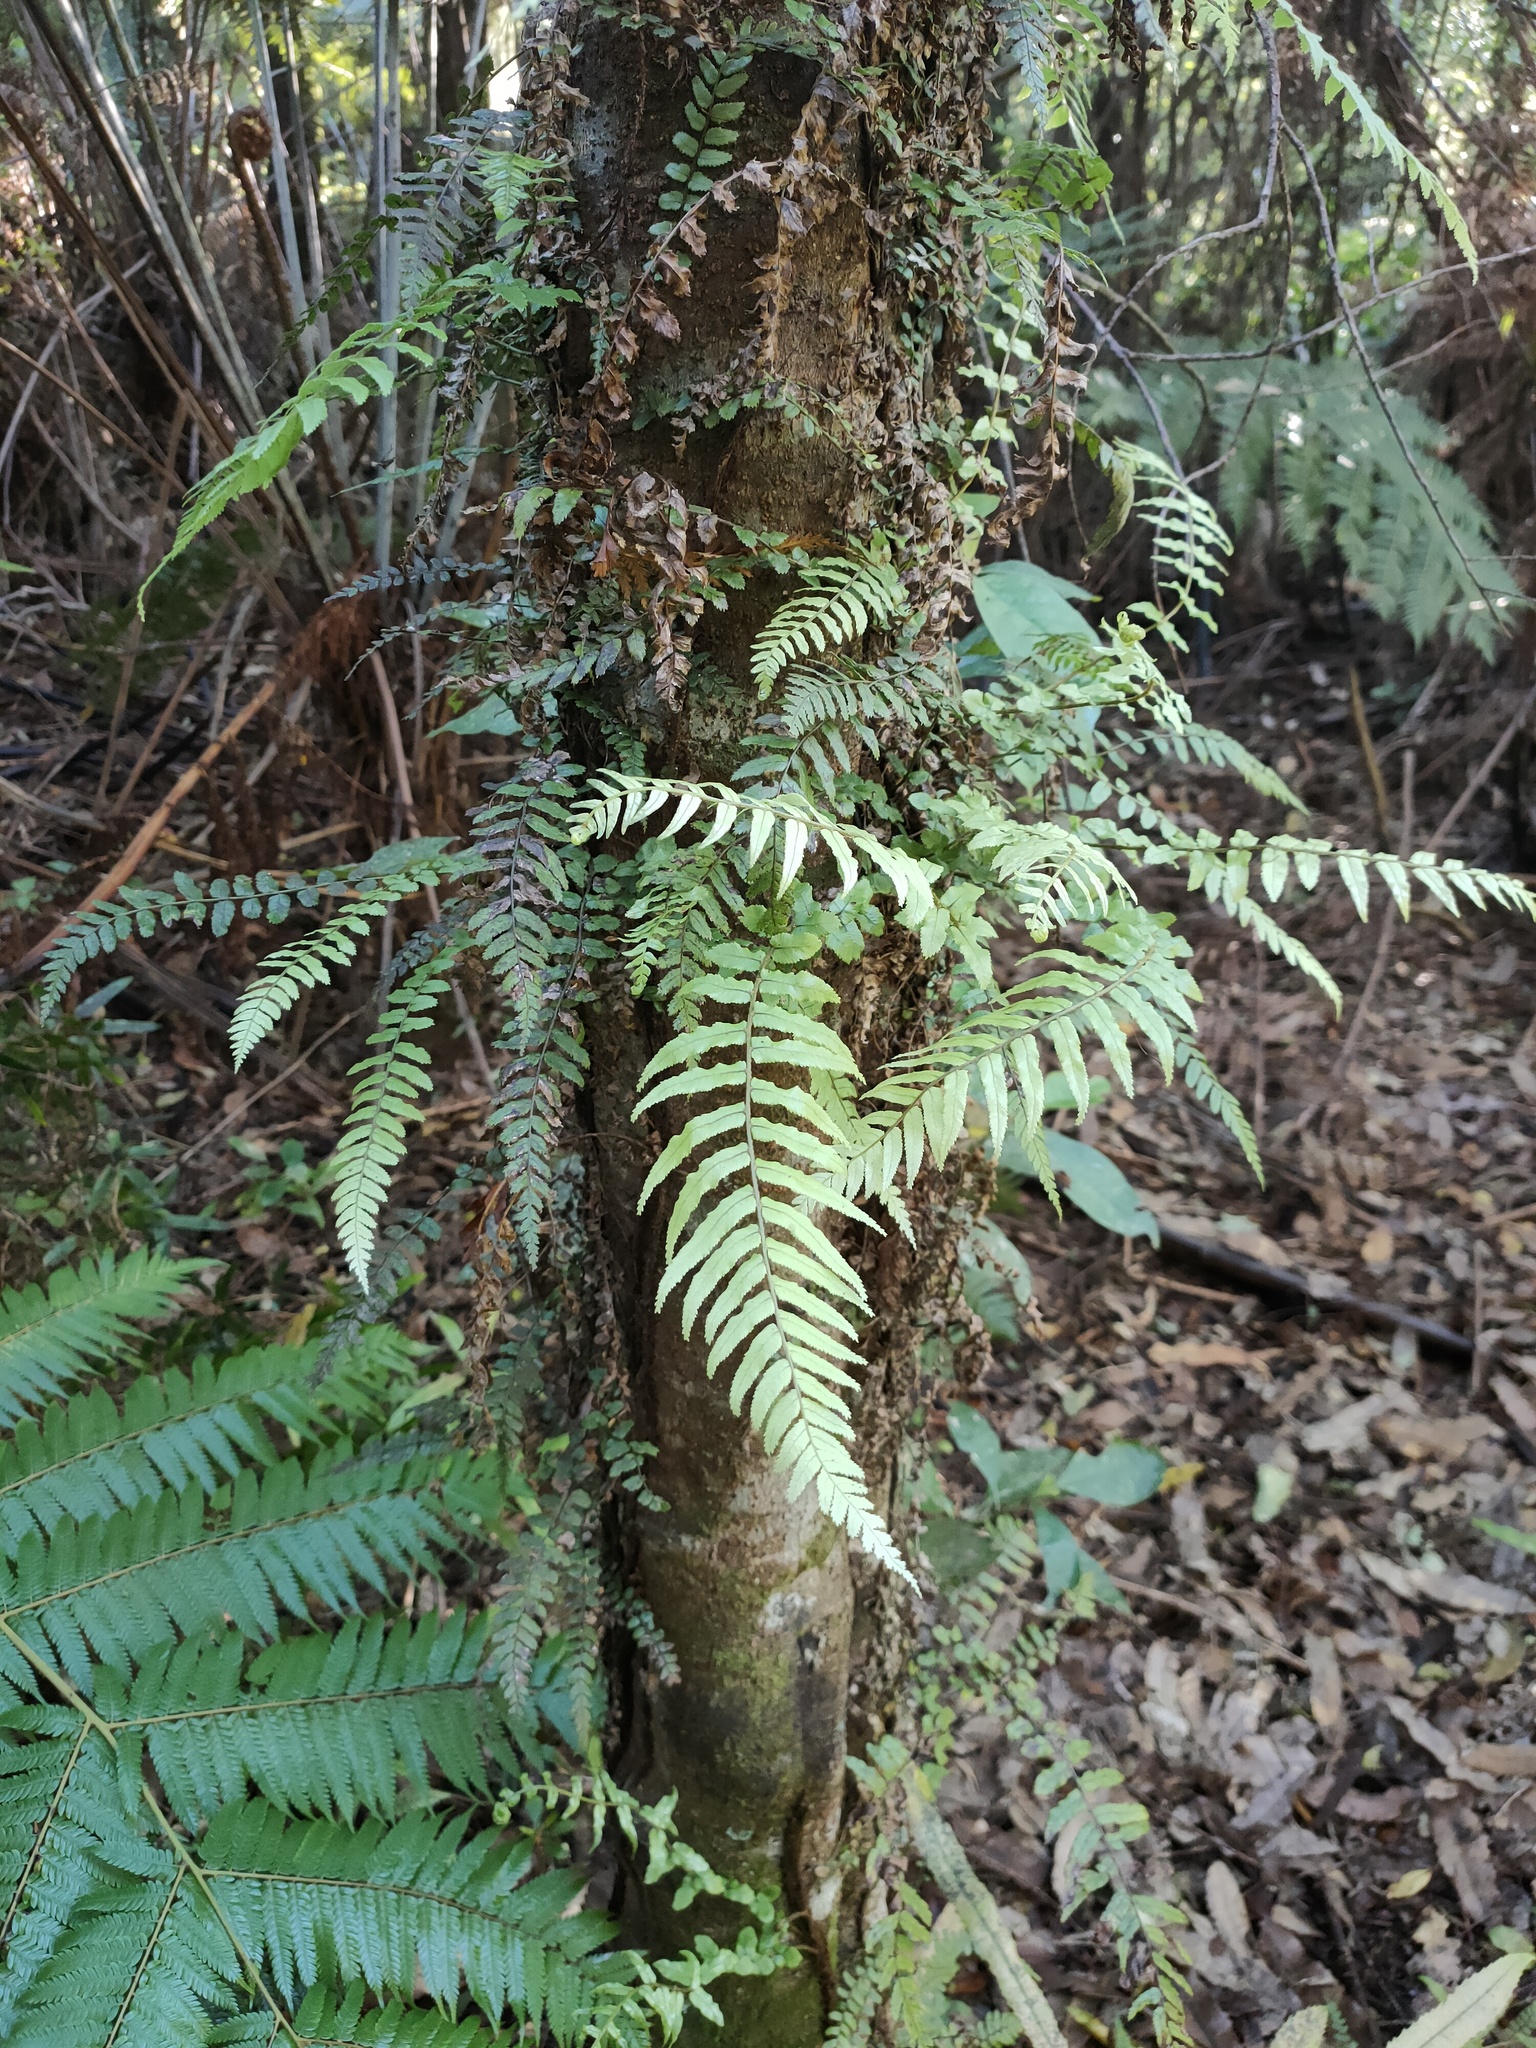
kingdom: Plantae
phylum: Tracheophyta
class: Polypodiopsida
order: Polypodiales
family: Blechnaceae
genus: Icarus
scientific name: Icarus filiformis
